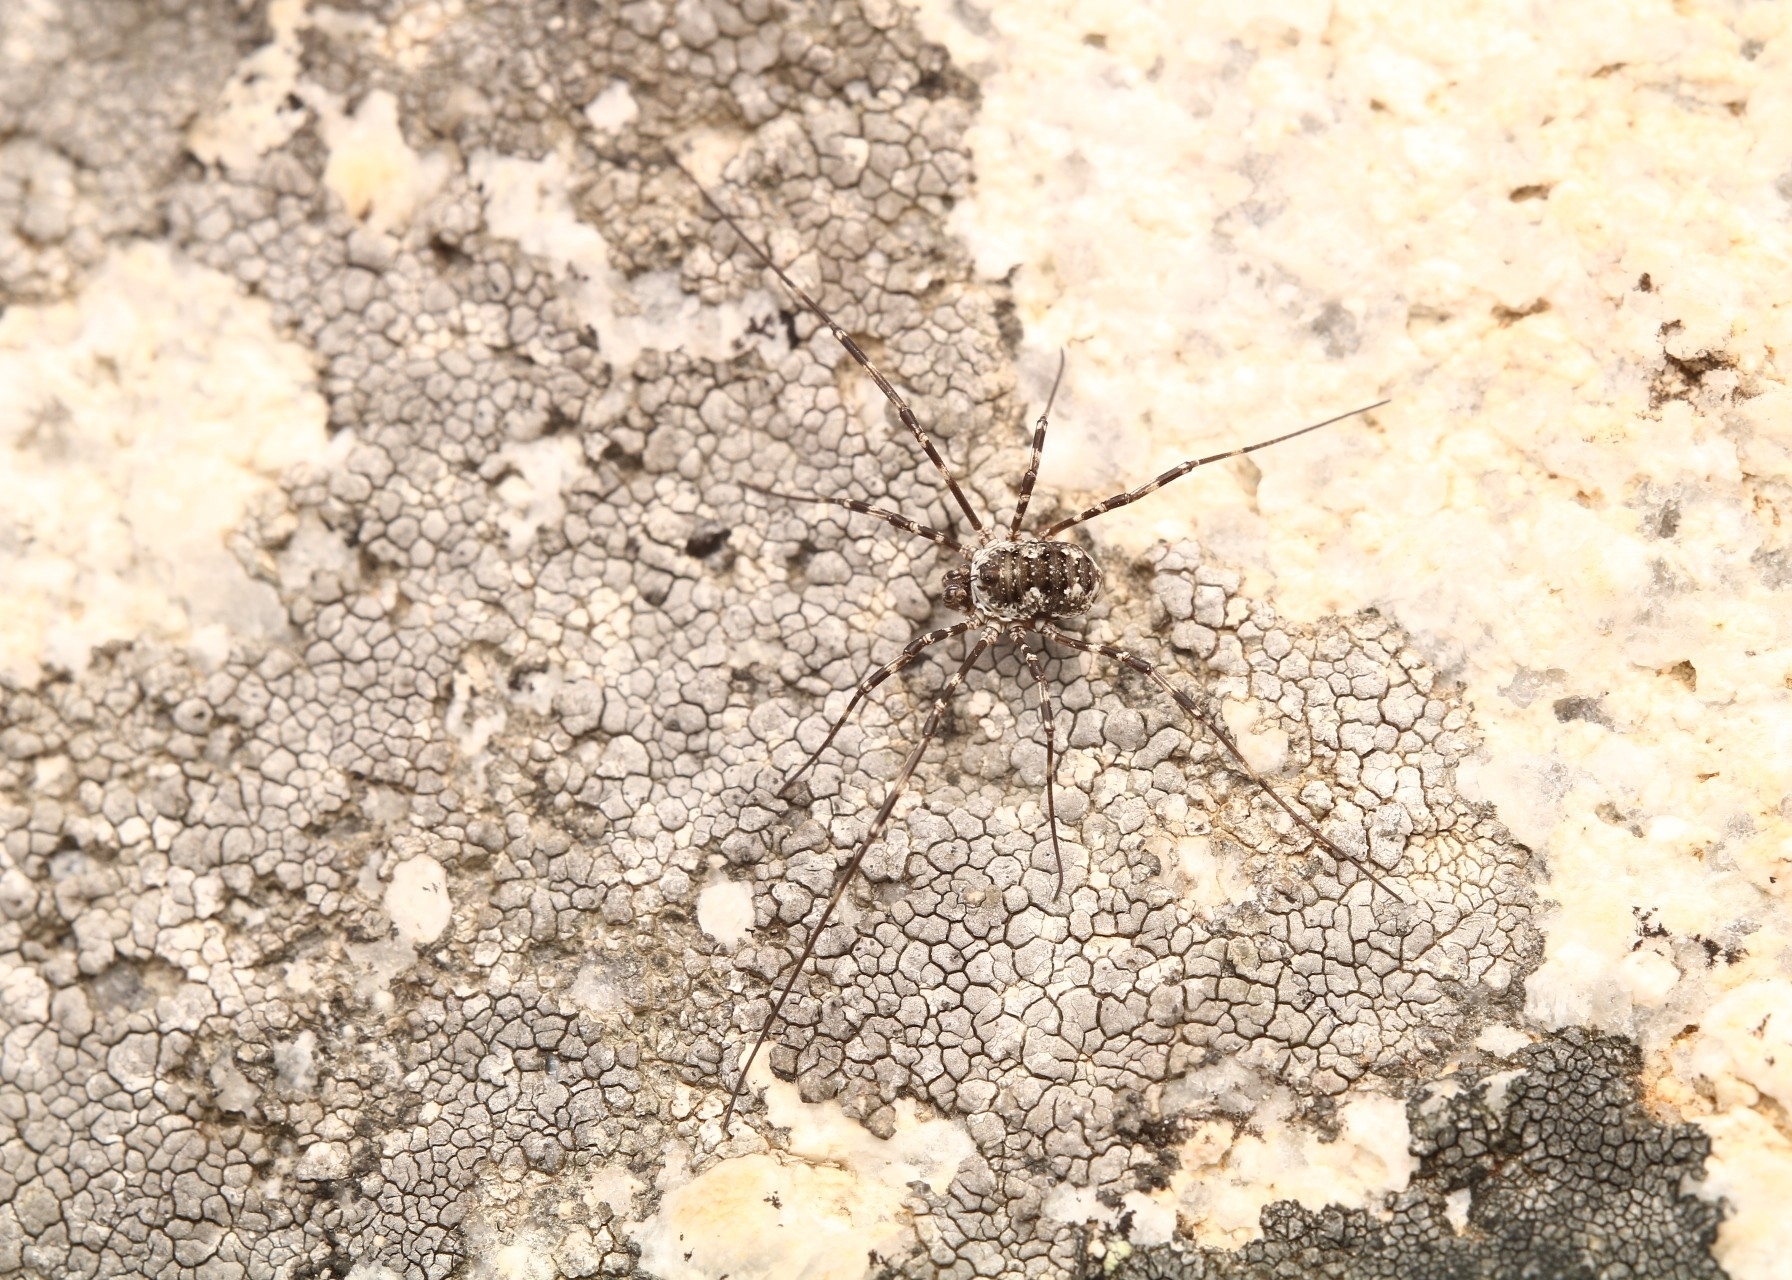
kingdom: Animalia
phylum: Arthropoda
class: Arachnida
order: Opiliones
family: Phalangiidae
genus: Mitopus
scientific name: Mitopus glacialis
